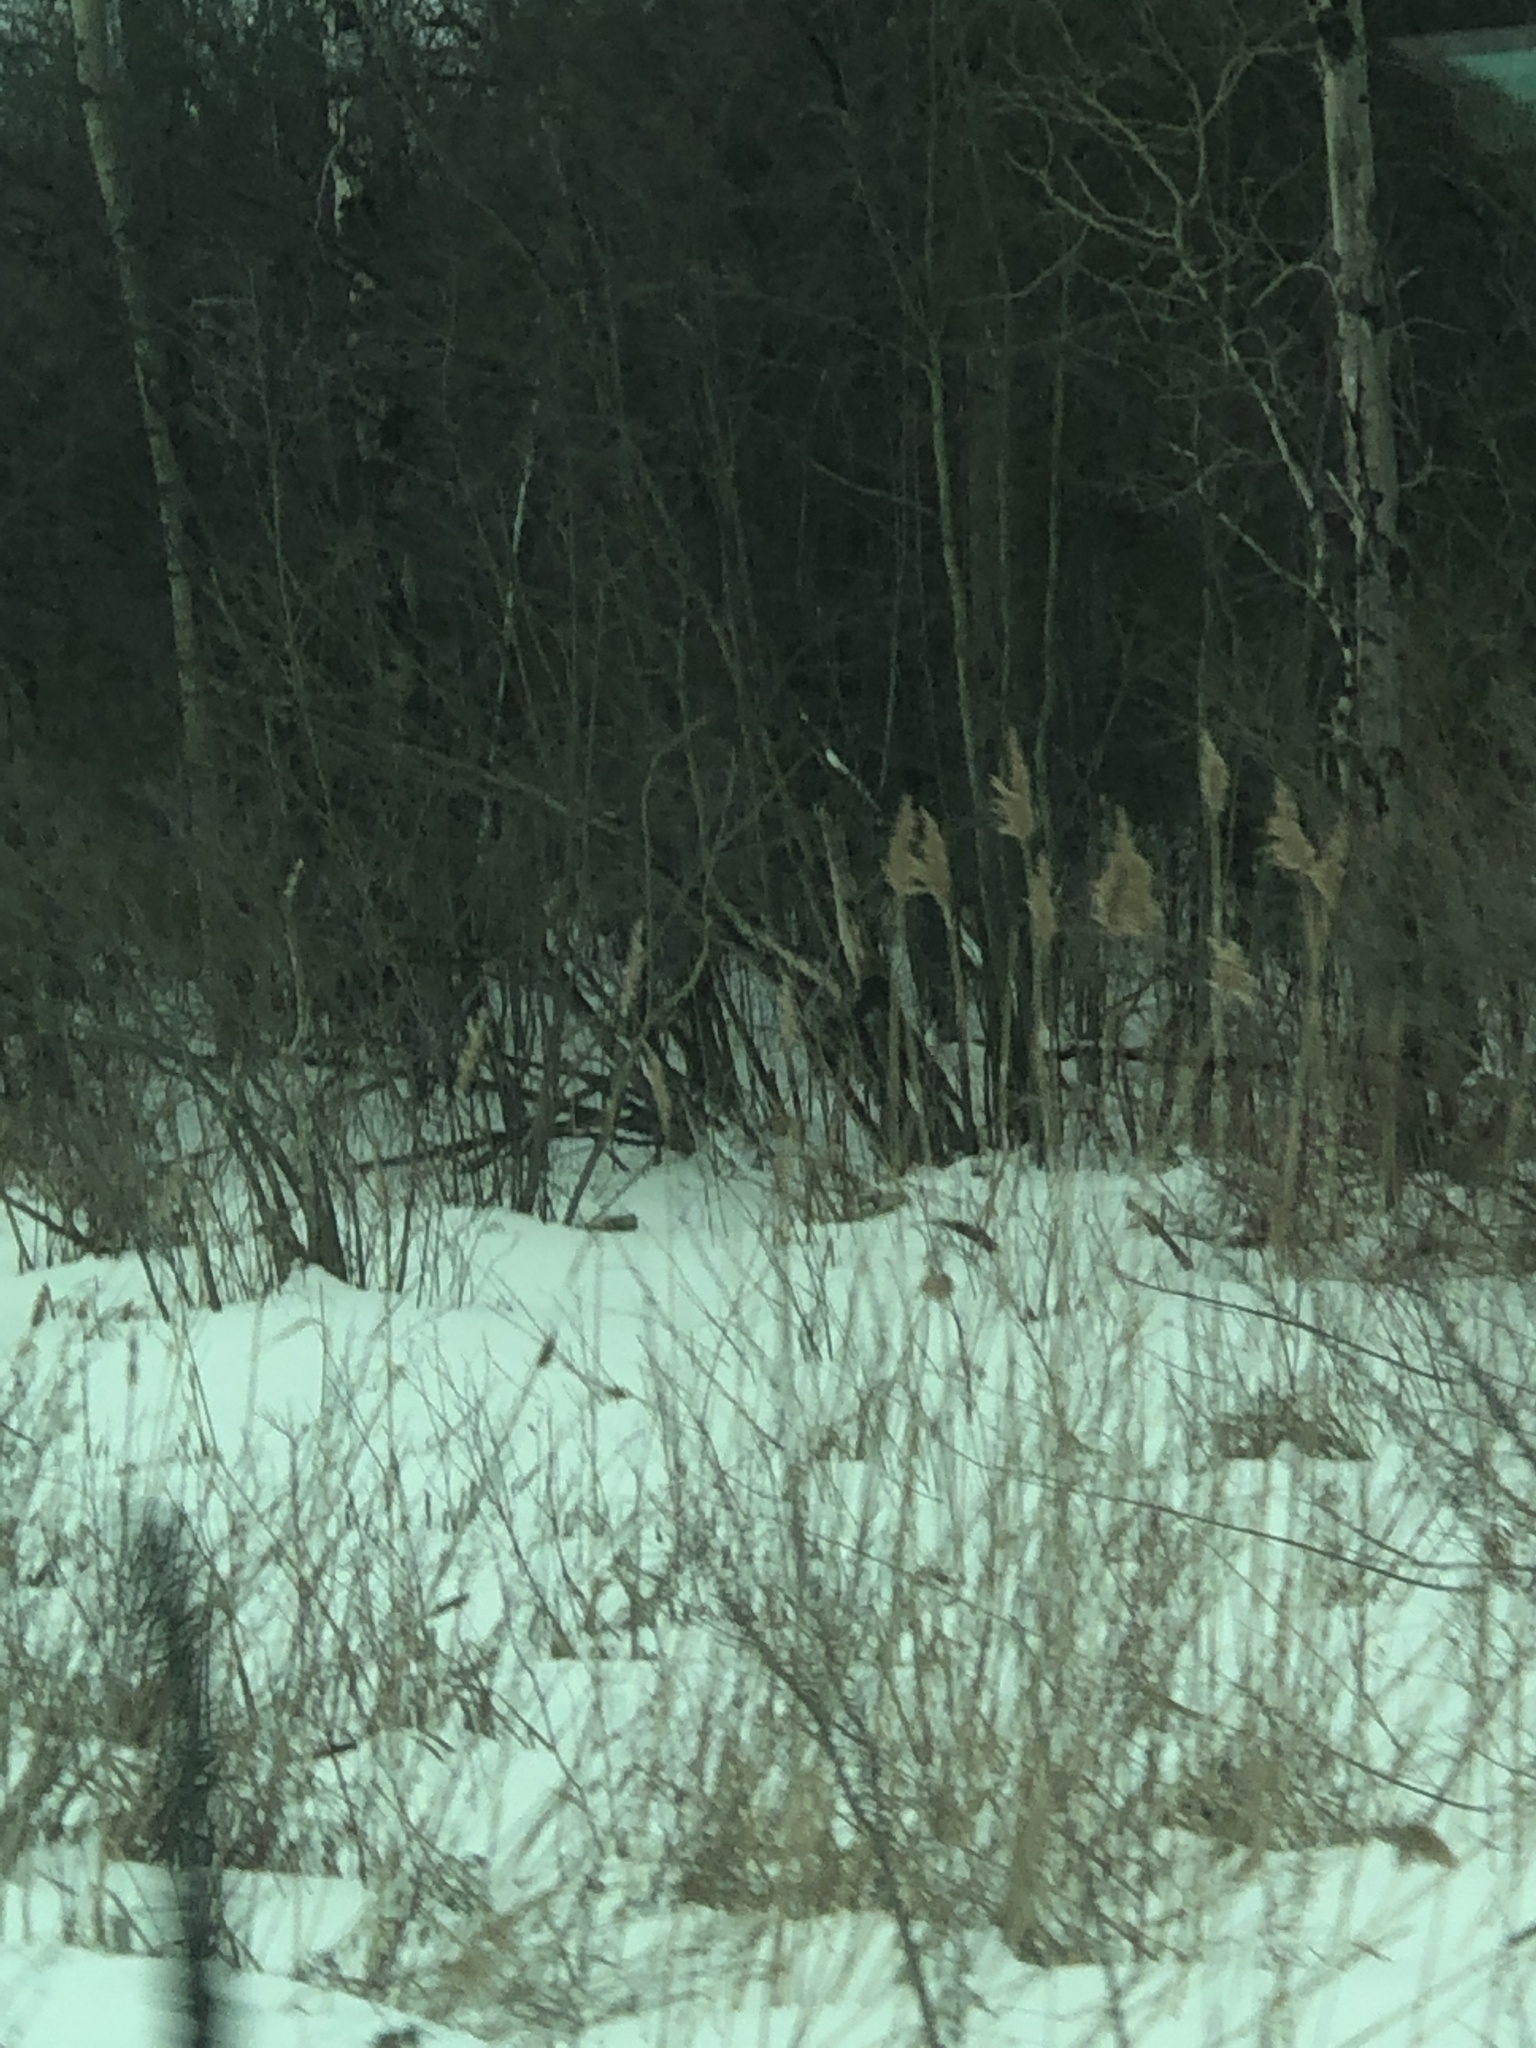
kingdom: Plantae
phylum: Tracheophyta
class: Liliopsida
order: Poales
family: Poaceae
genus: Phragmites
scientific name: Phragmites australis
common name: Common reed
